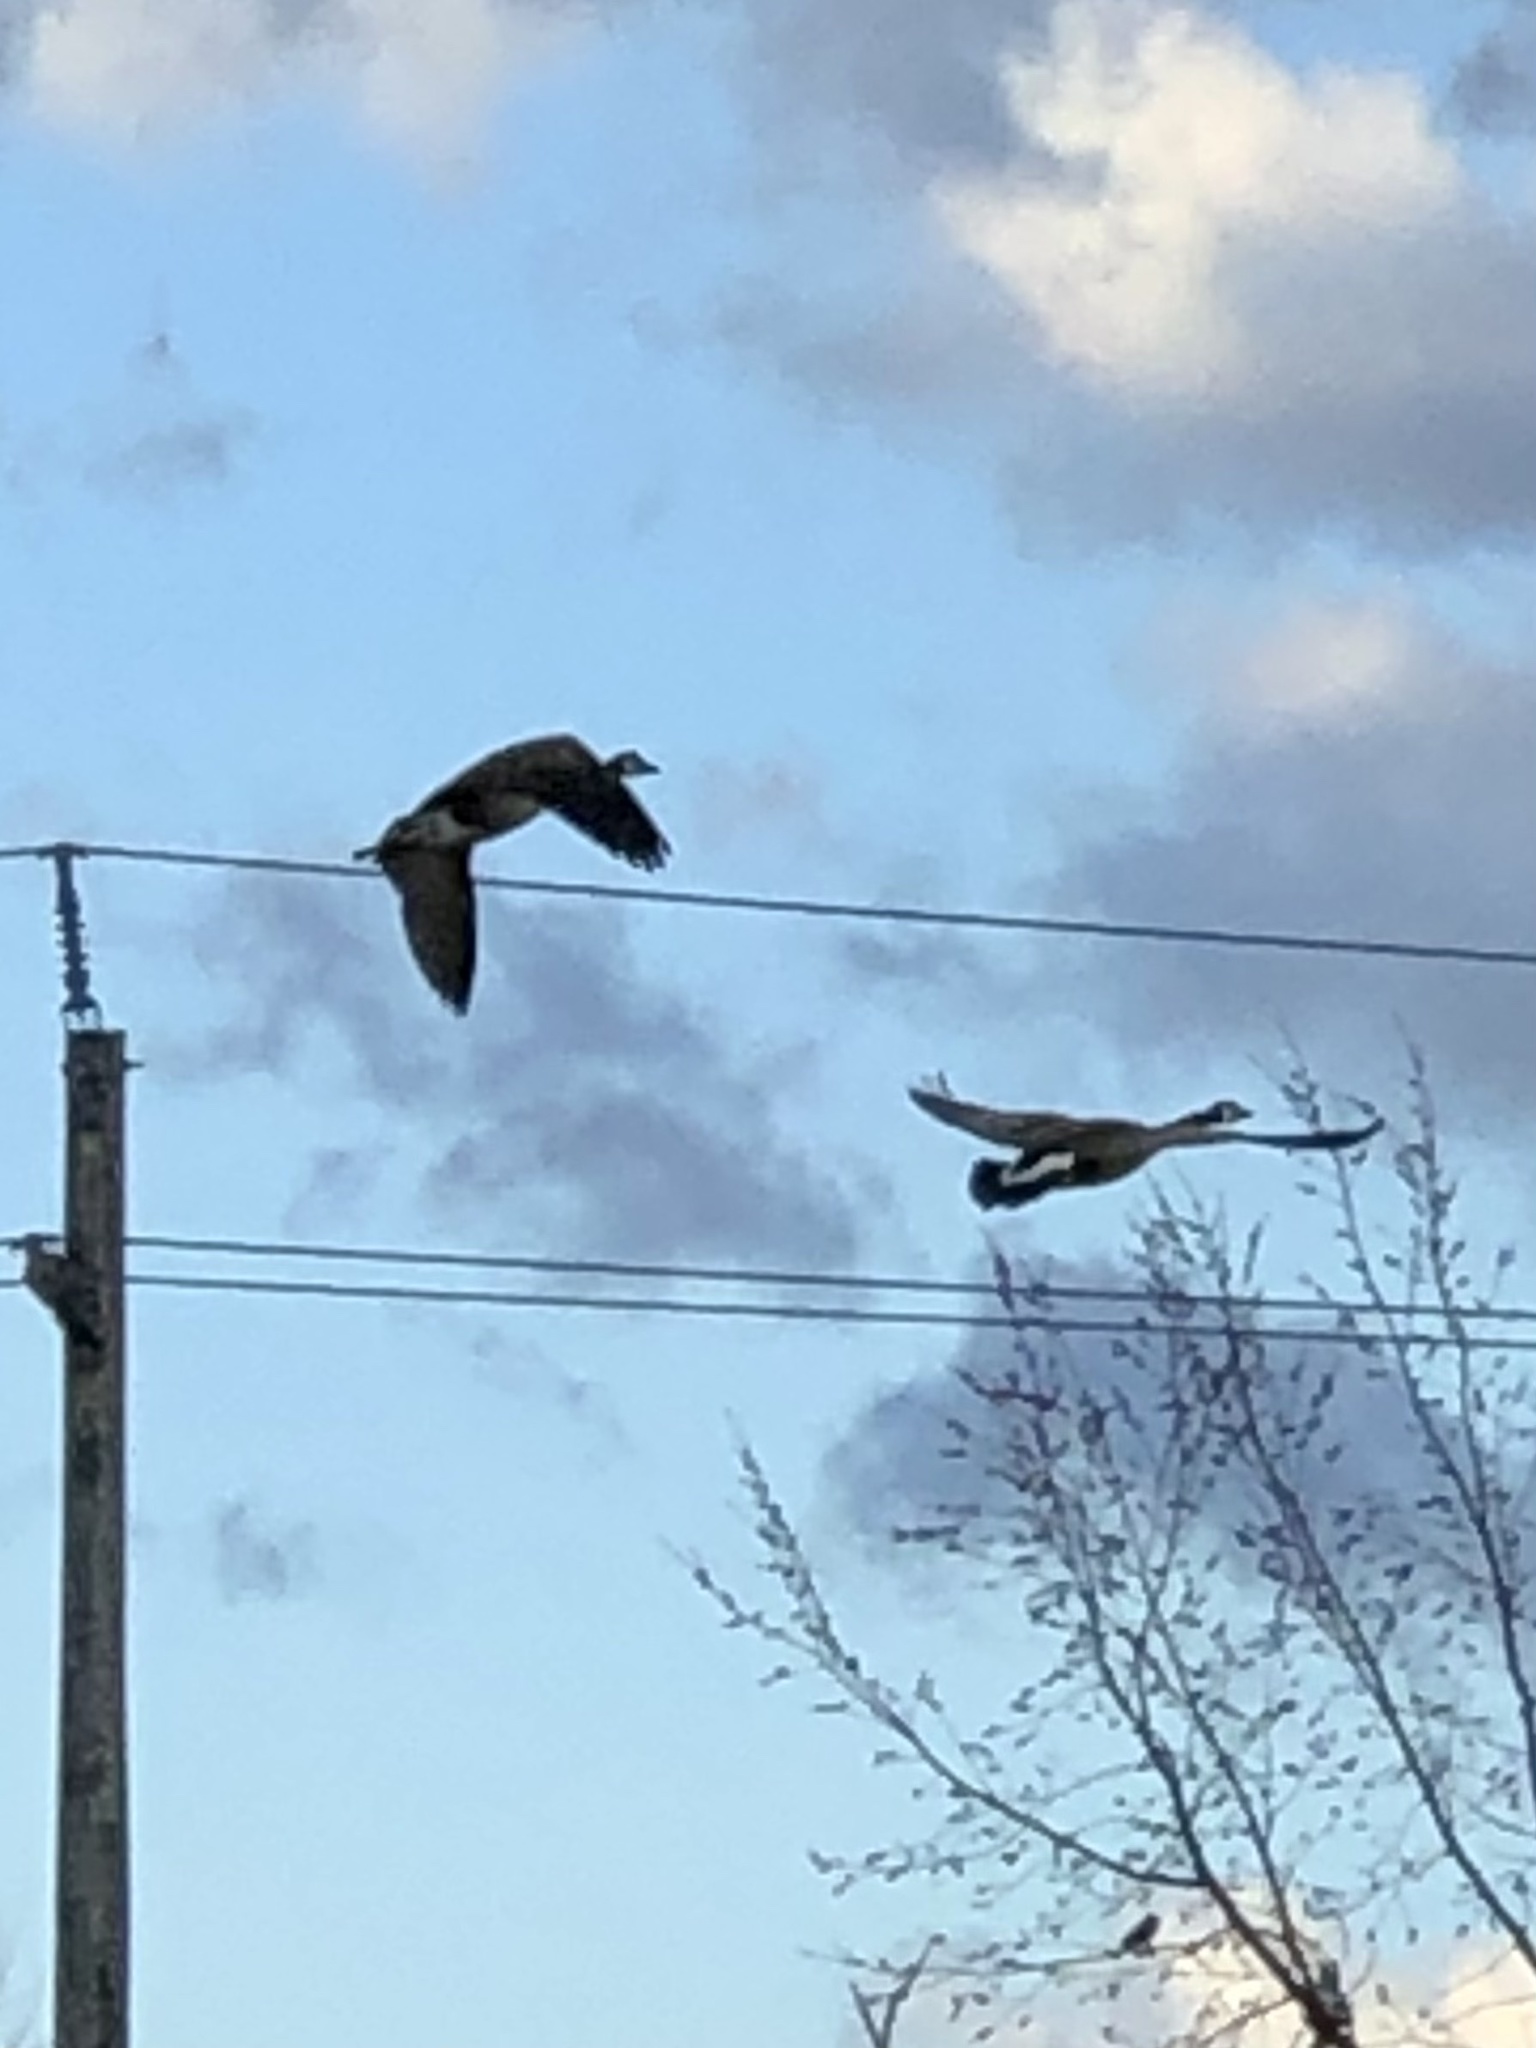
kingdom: Animalia
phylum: Chordata
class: Aves
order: Anseriformes
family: Anatidae
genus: Branta
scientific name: Branta canadensis
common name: Canada goose
